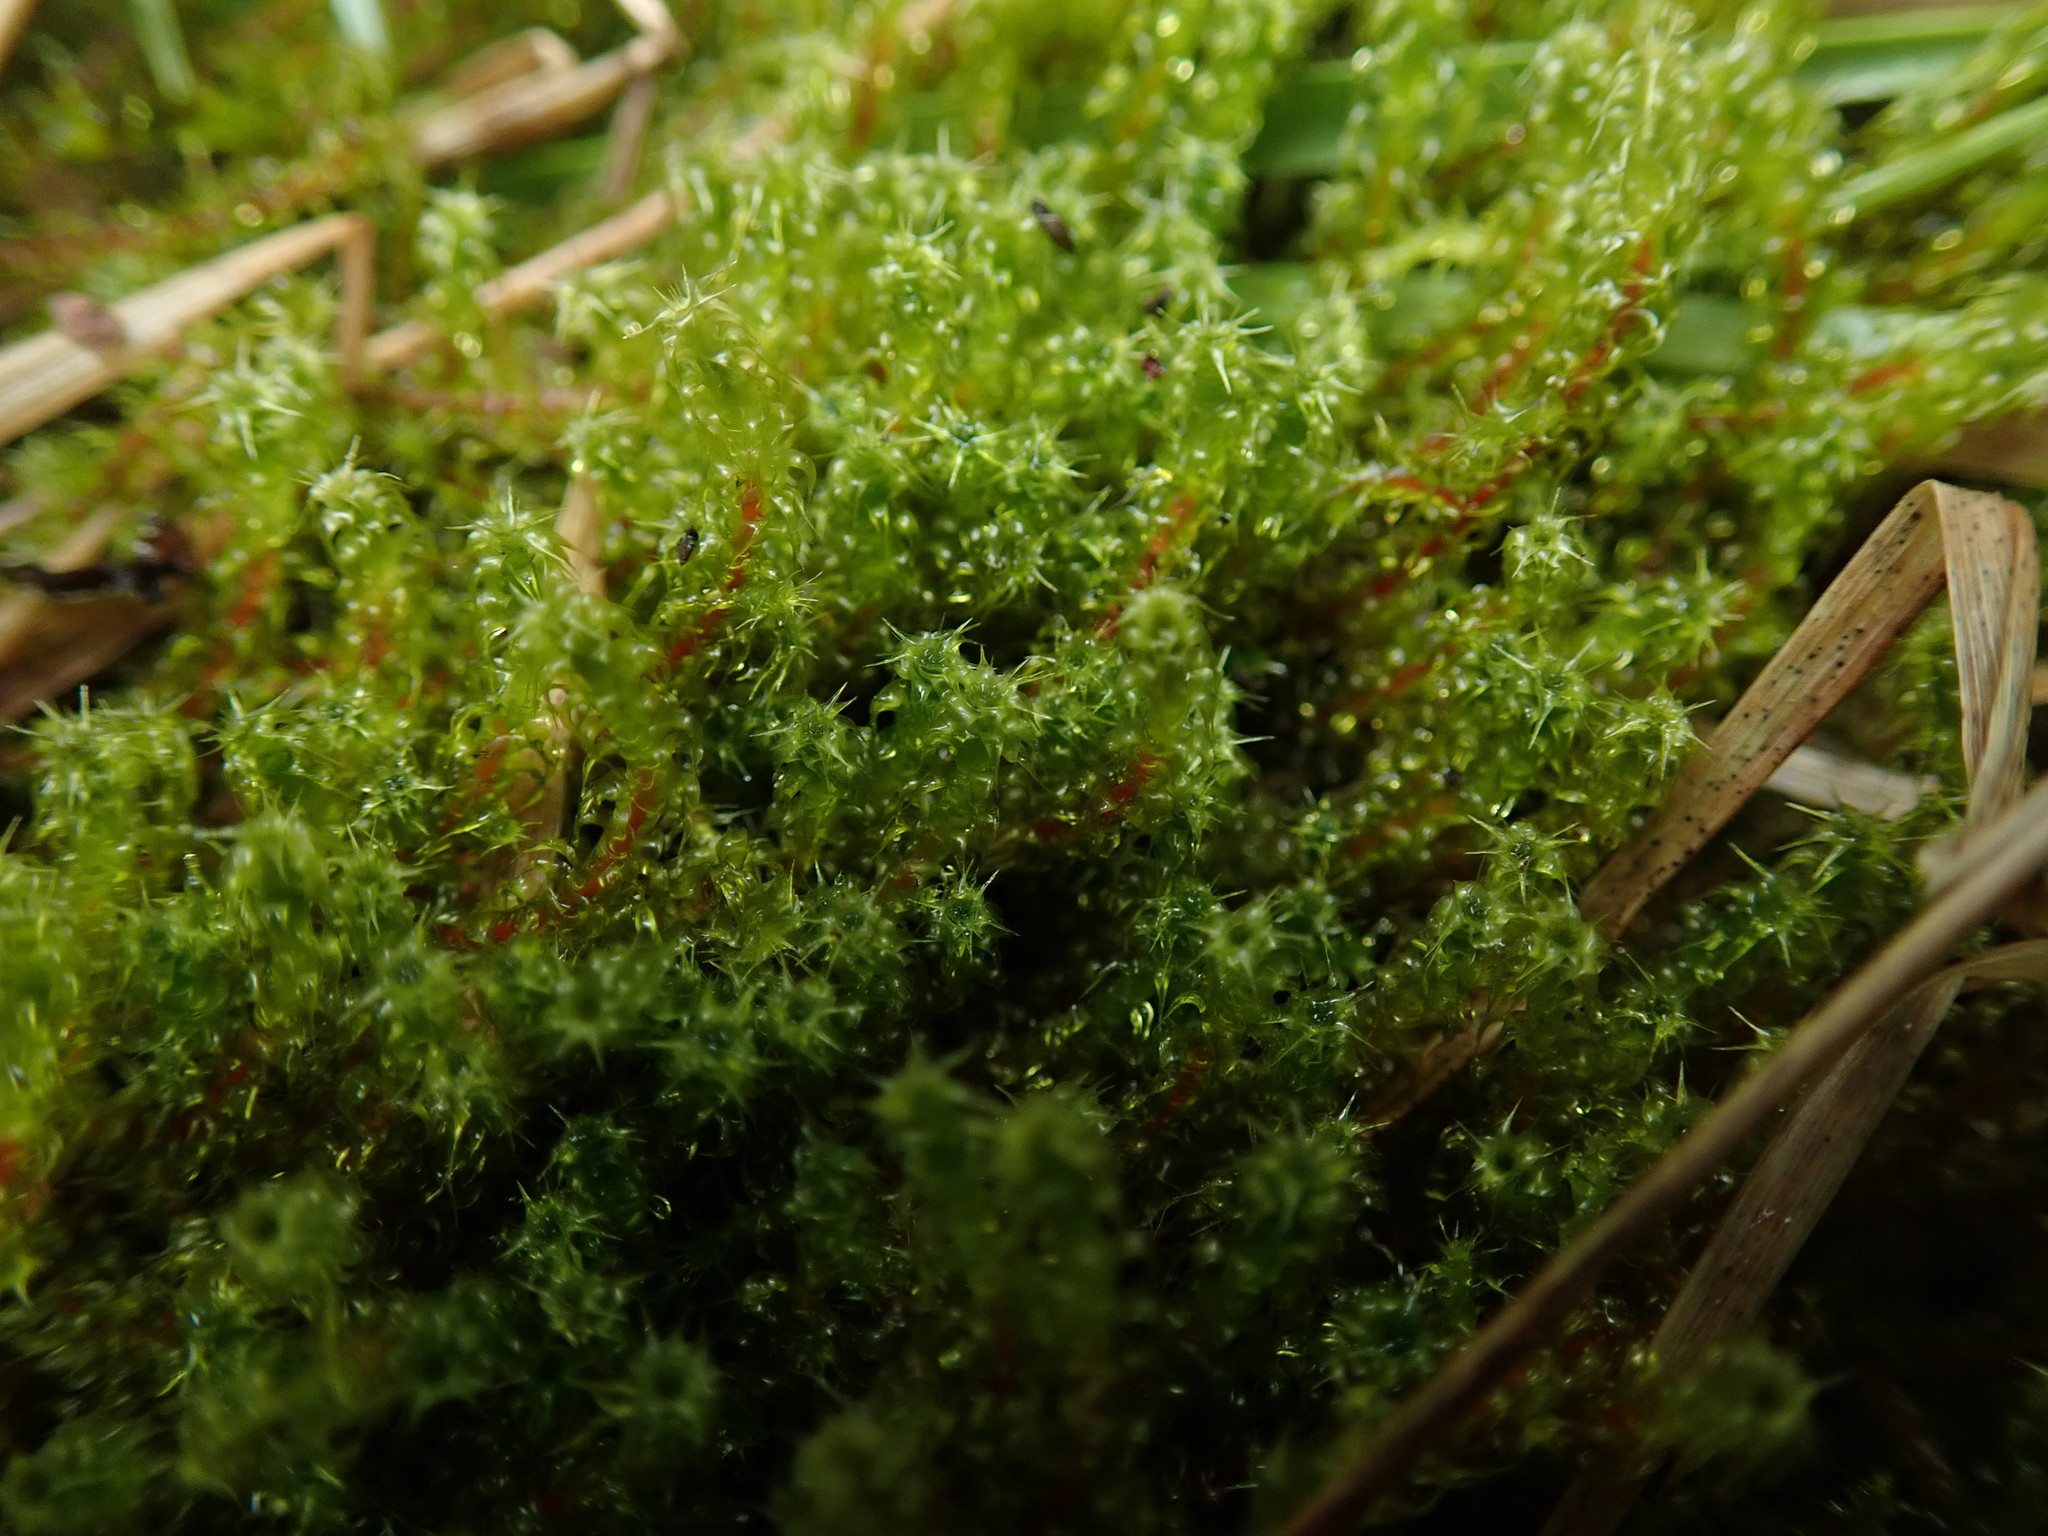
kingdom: Plantae
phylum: Bryophyta
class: Bryopsida
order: Hypnales
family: Hylocomiaceae
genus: Rhytidiadelphus
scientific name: Rhytidiadelphus squarrosus
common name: Springy turf-moss
